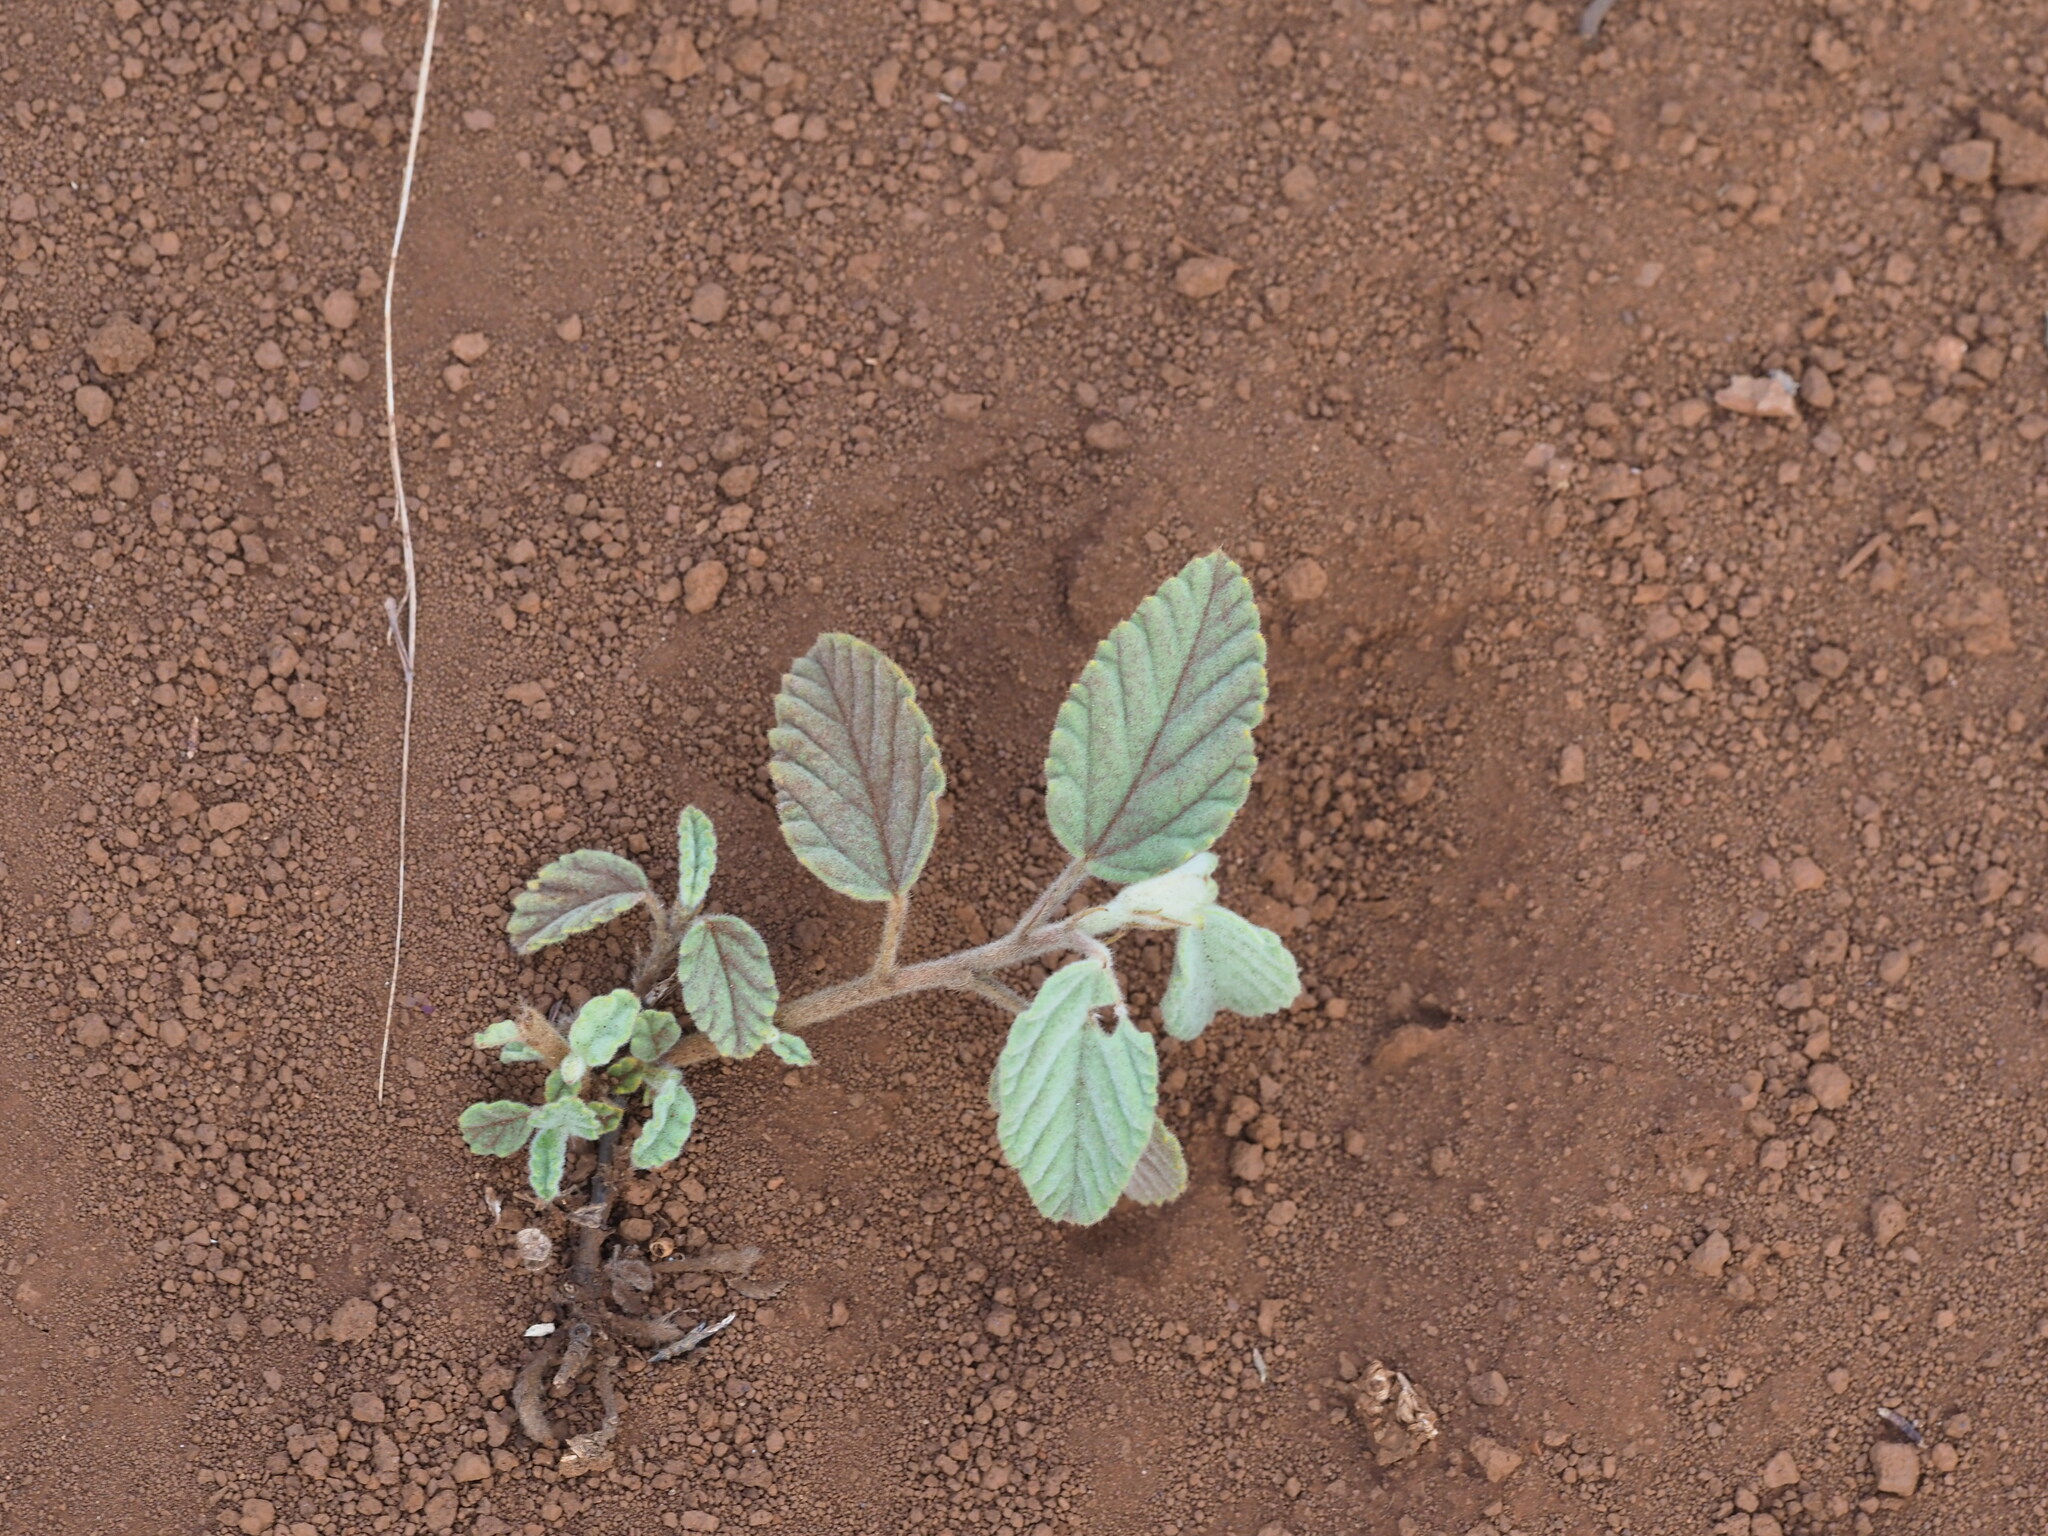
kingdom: Plantae
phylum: Tracheophyta
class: Magnoliopsida
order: Malvales
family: Malvaceae
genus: Waltheria
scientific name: Waltheria indica
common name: Leather-coat
